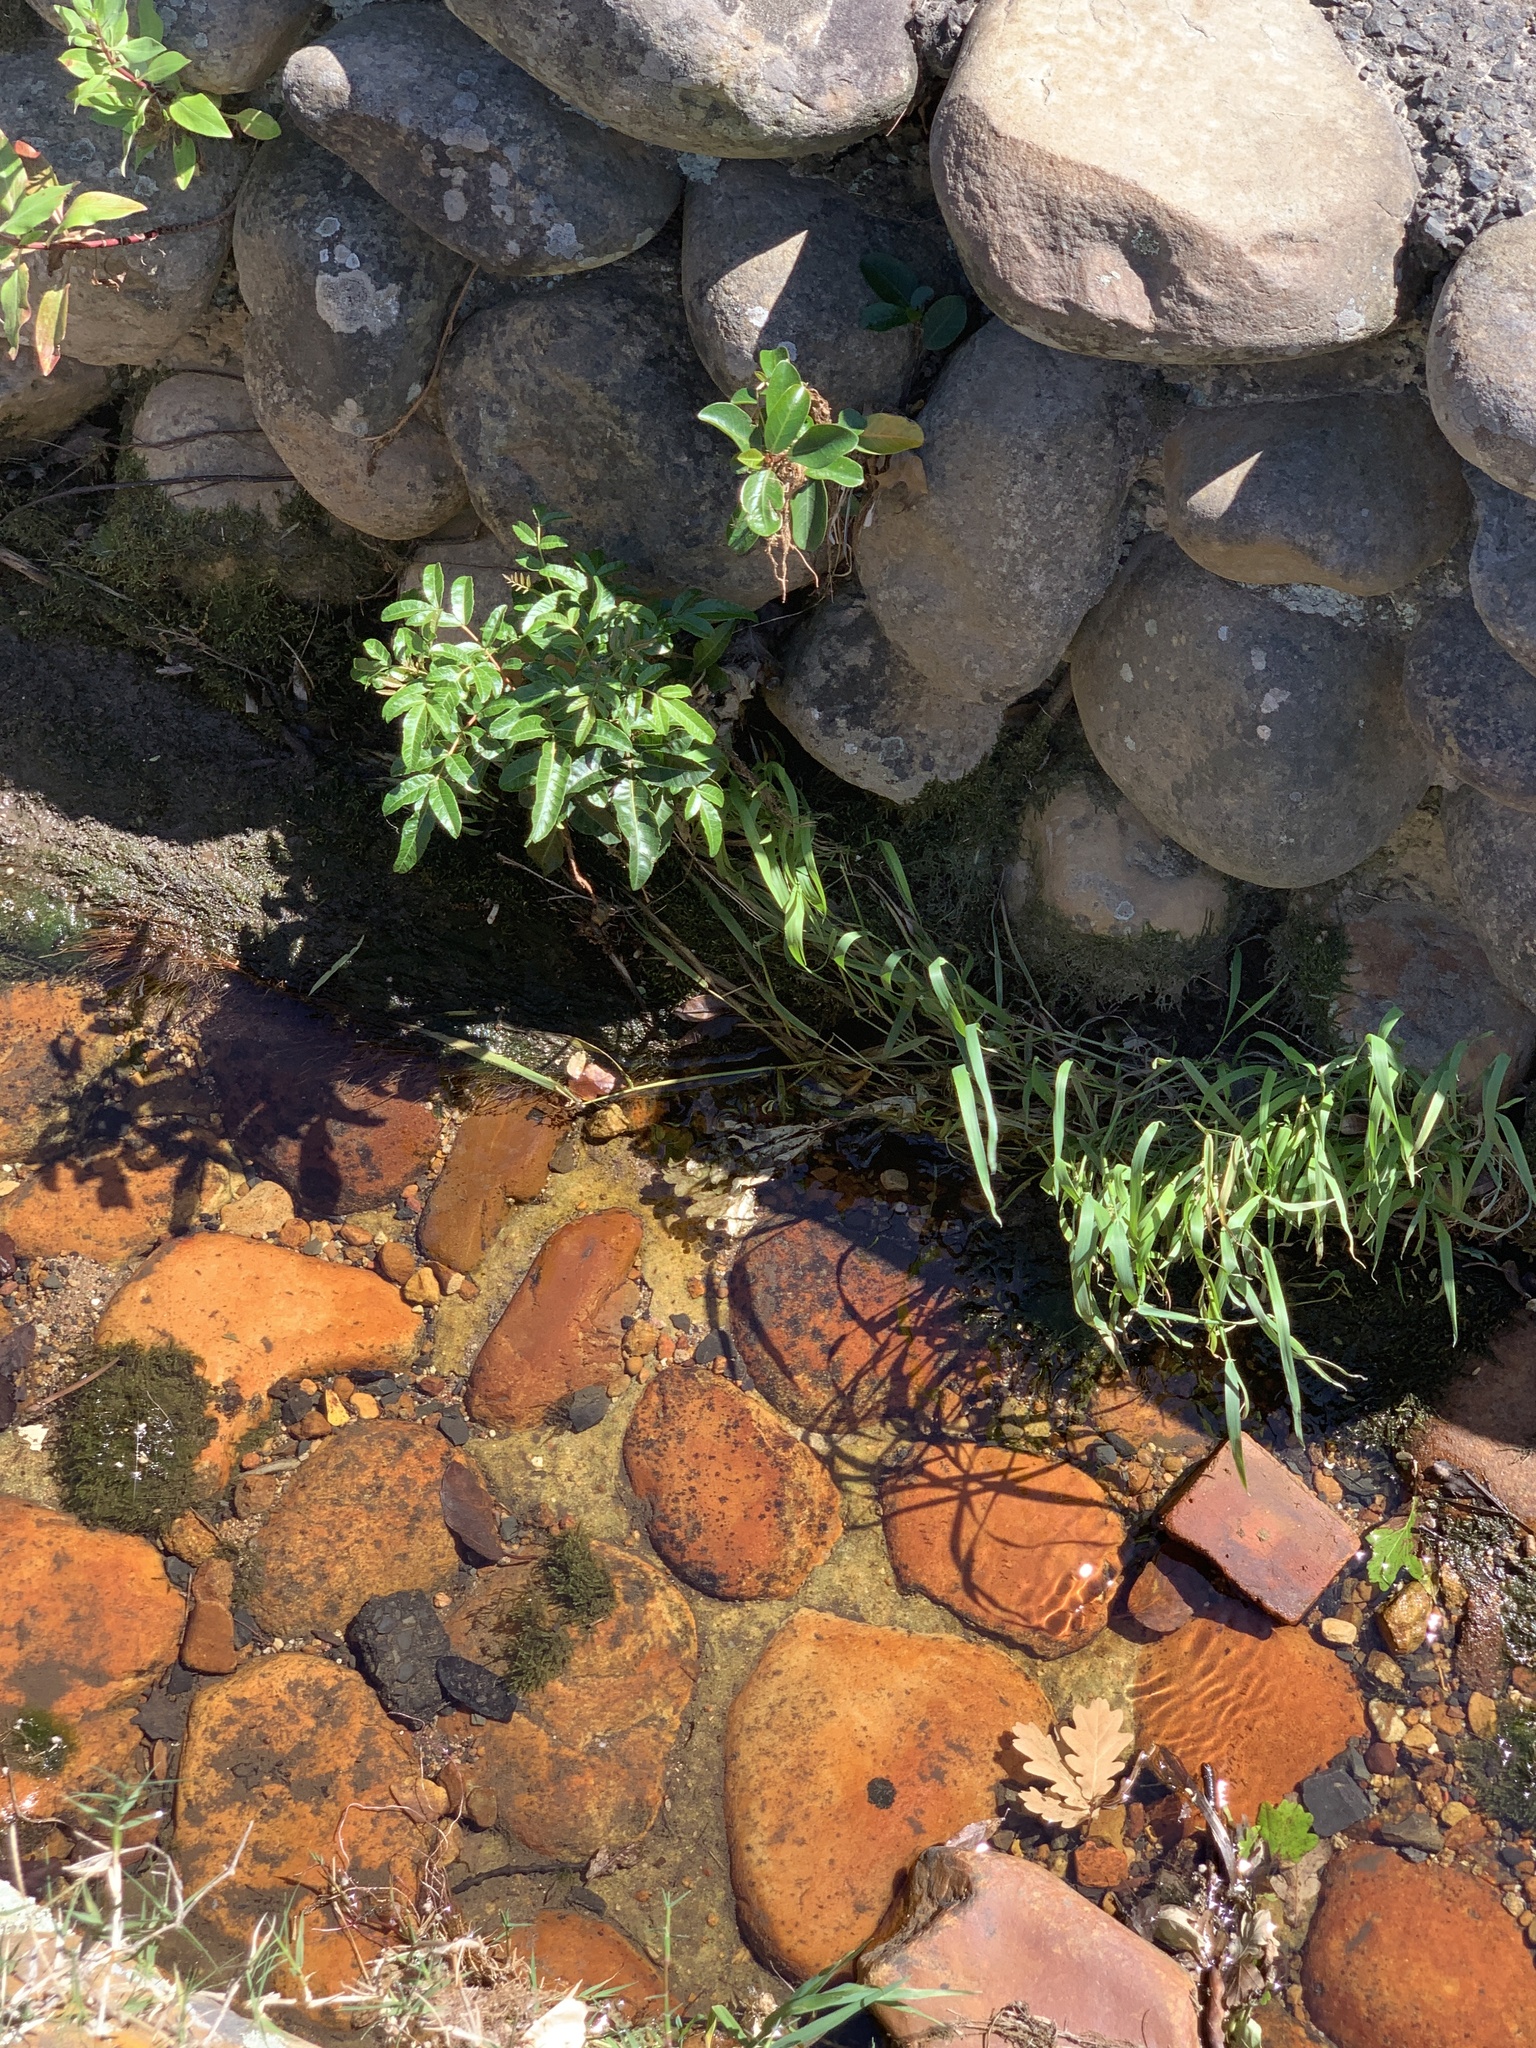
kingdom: Plantae
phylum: Tracheophyta
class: Magnoliopsida
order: Sapindales
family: Anacardiaceae
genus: Schinus
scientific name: Schinus terebinthifolia
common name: Brazilian peppertree
